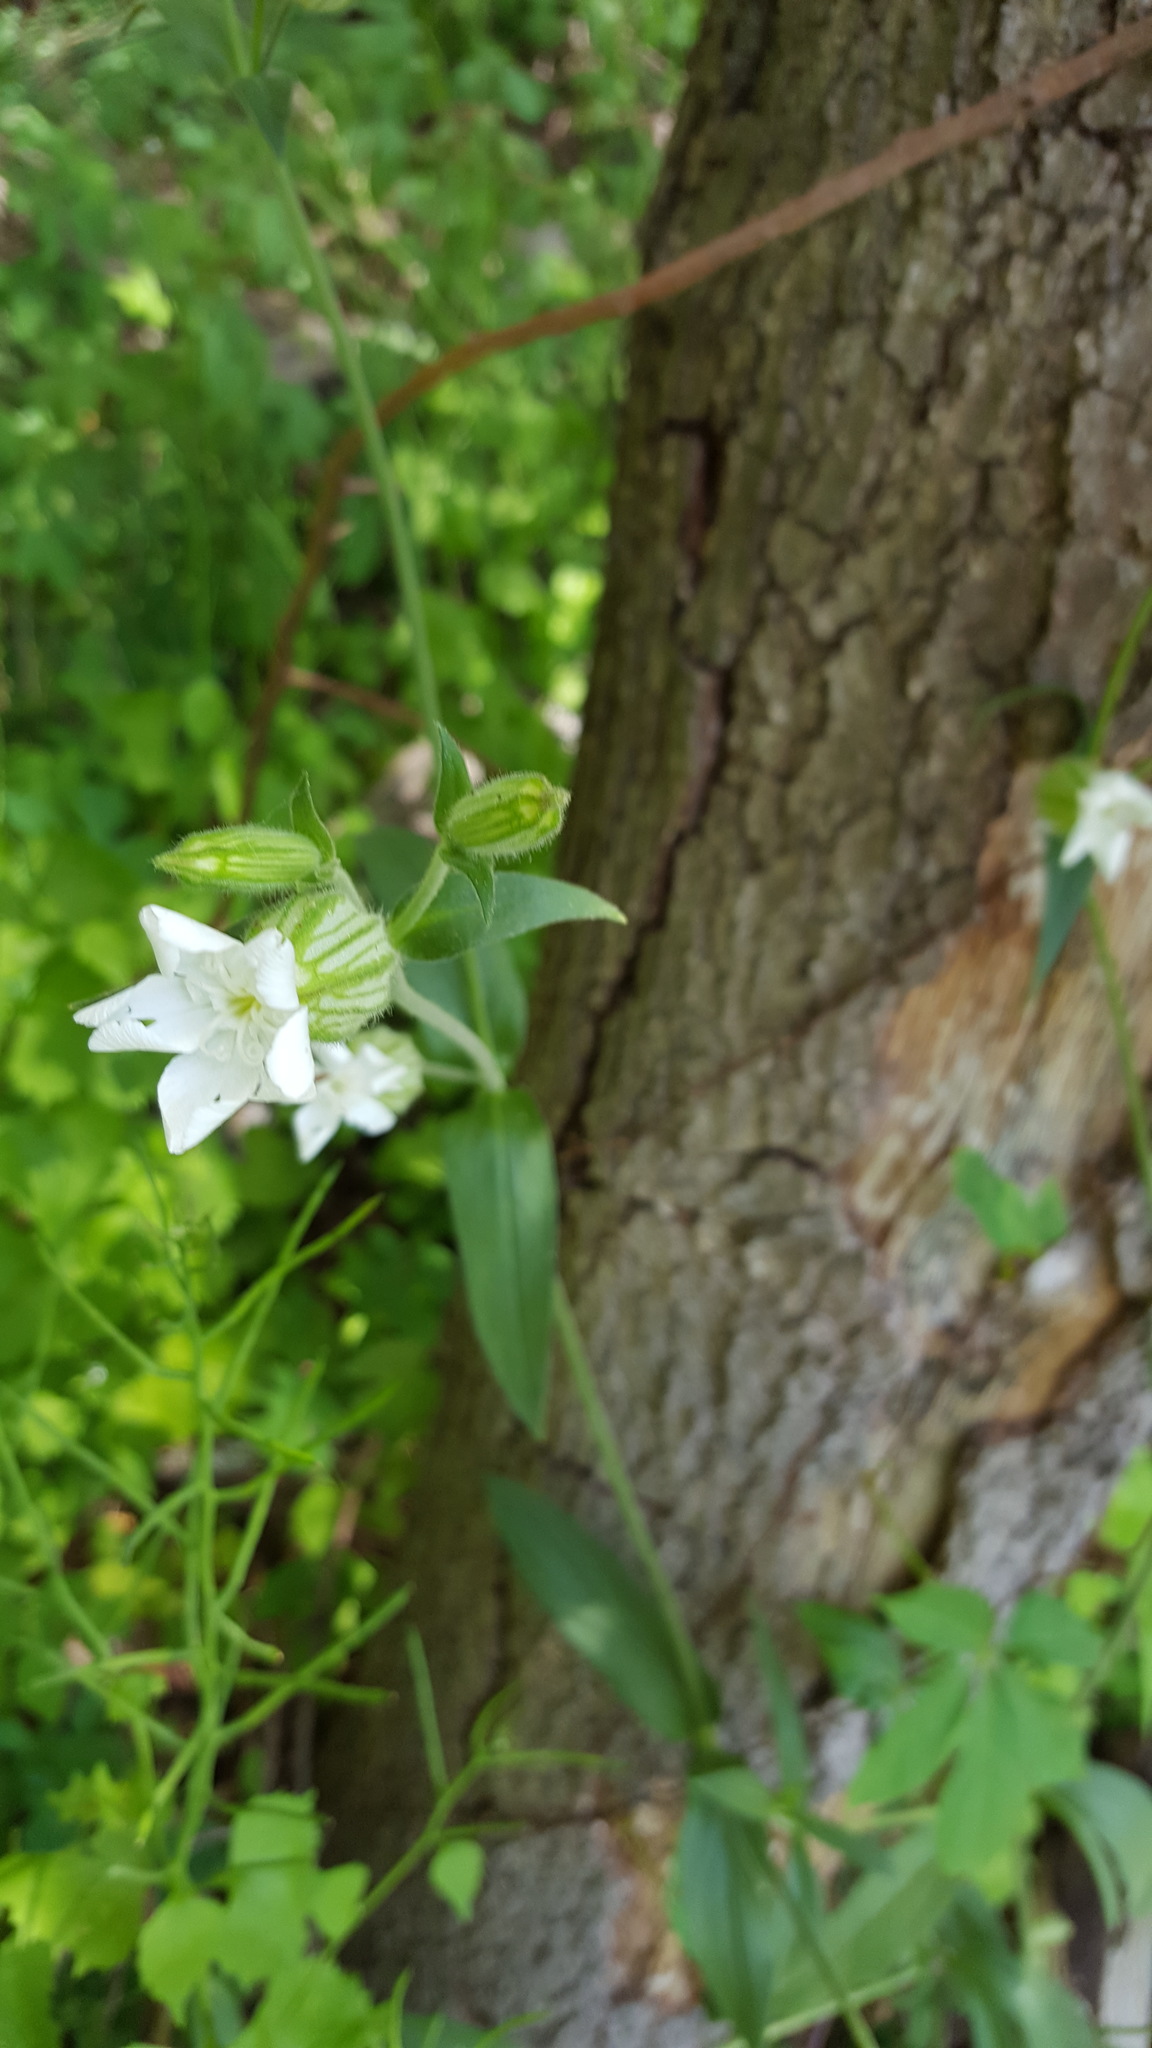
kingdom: Plantae
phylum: Tracheophyta
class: Magnoliopsida
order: Caryophyllales
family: Caryophyllaceae
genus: Silene
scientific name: Silene latifolia
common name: White campion
